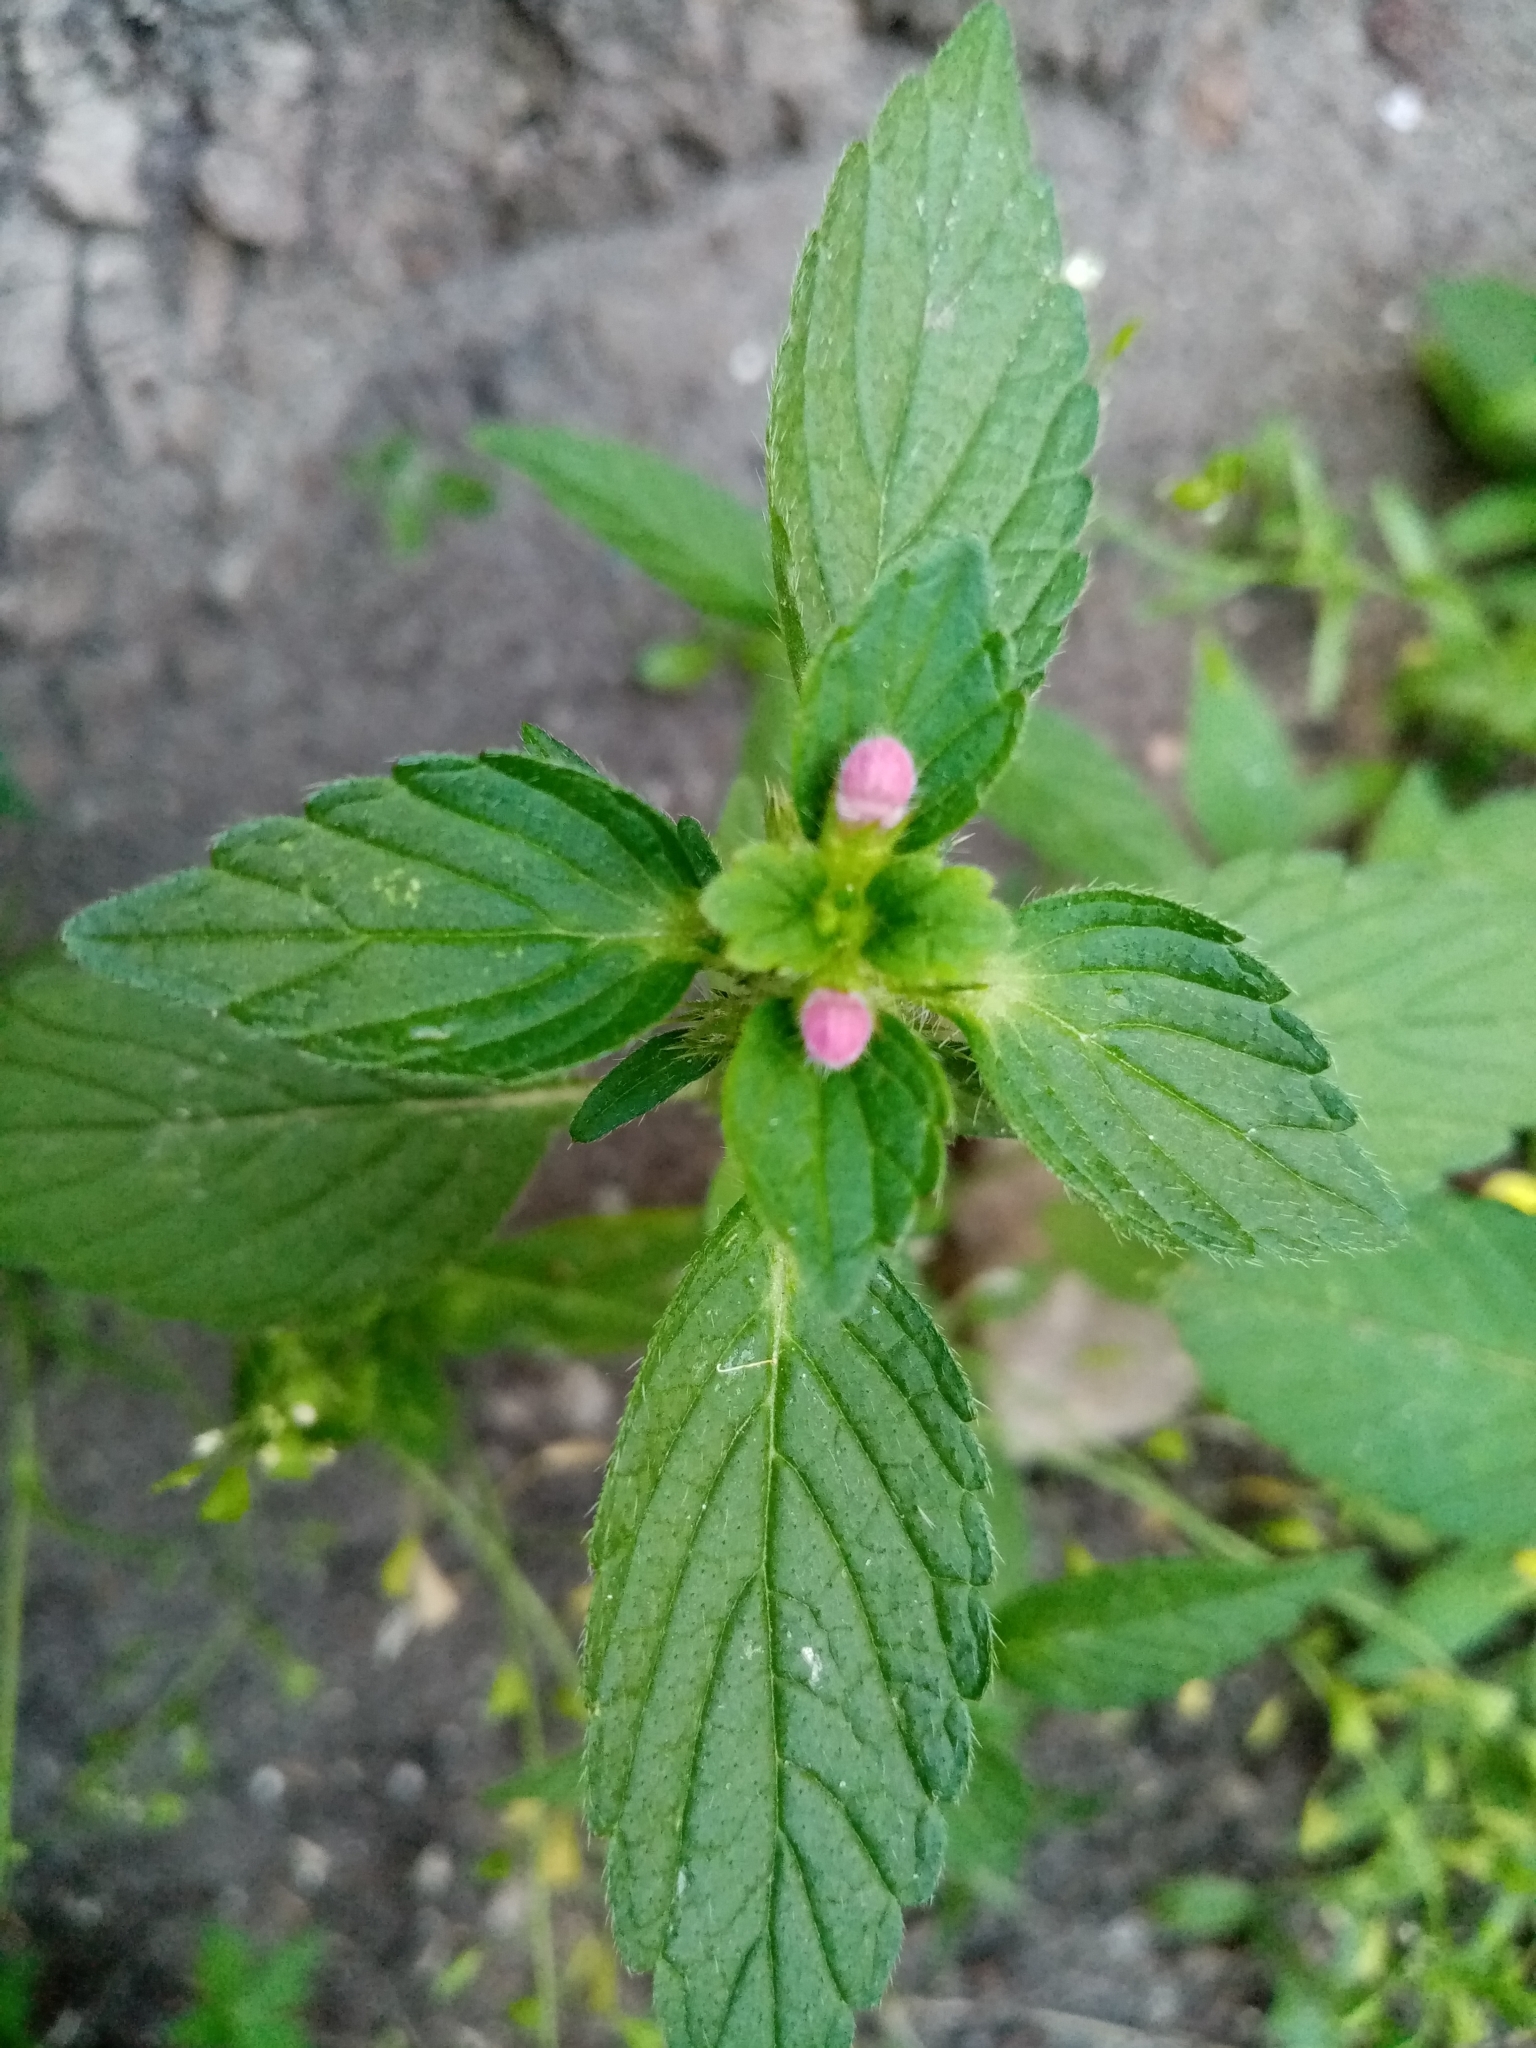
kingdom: Plantae
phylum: Tracheophyta
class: Magnoliopsida
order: Lamiales
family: Lamiaceae
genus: Galeopsis
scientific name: Galeopsis speciosa
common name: Large-flowered hemp-nettle
